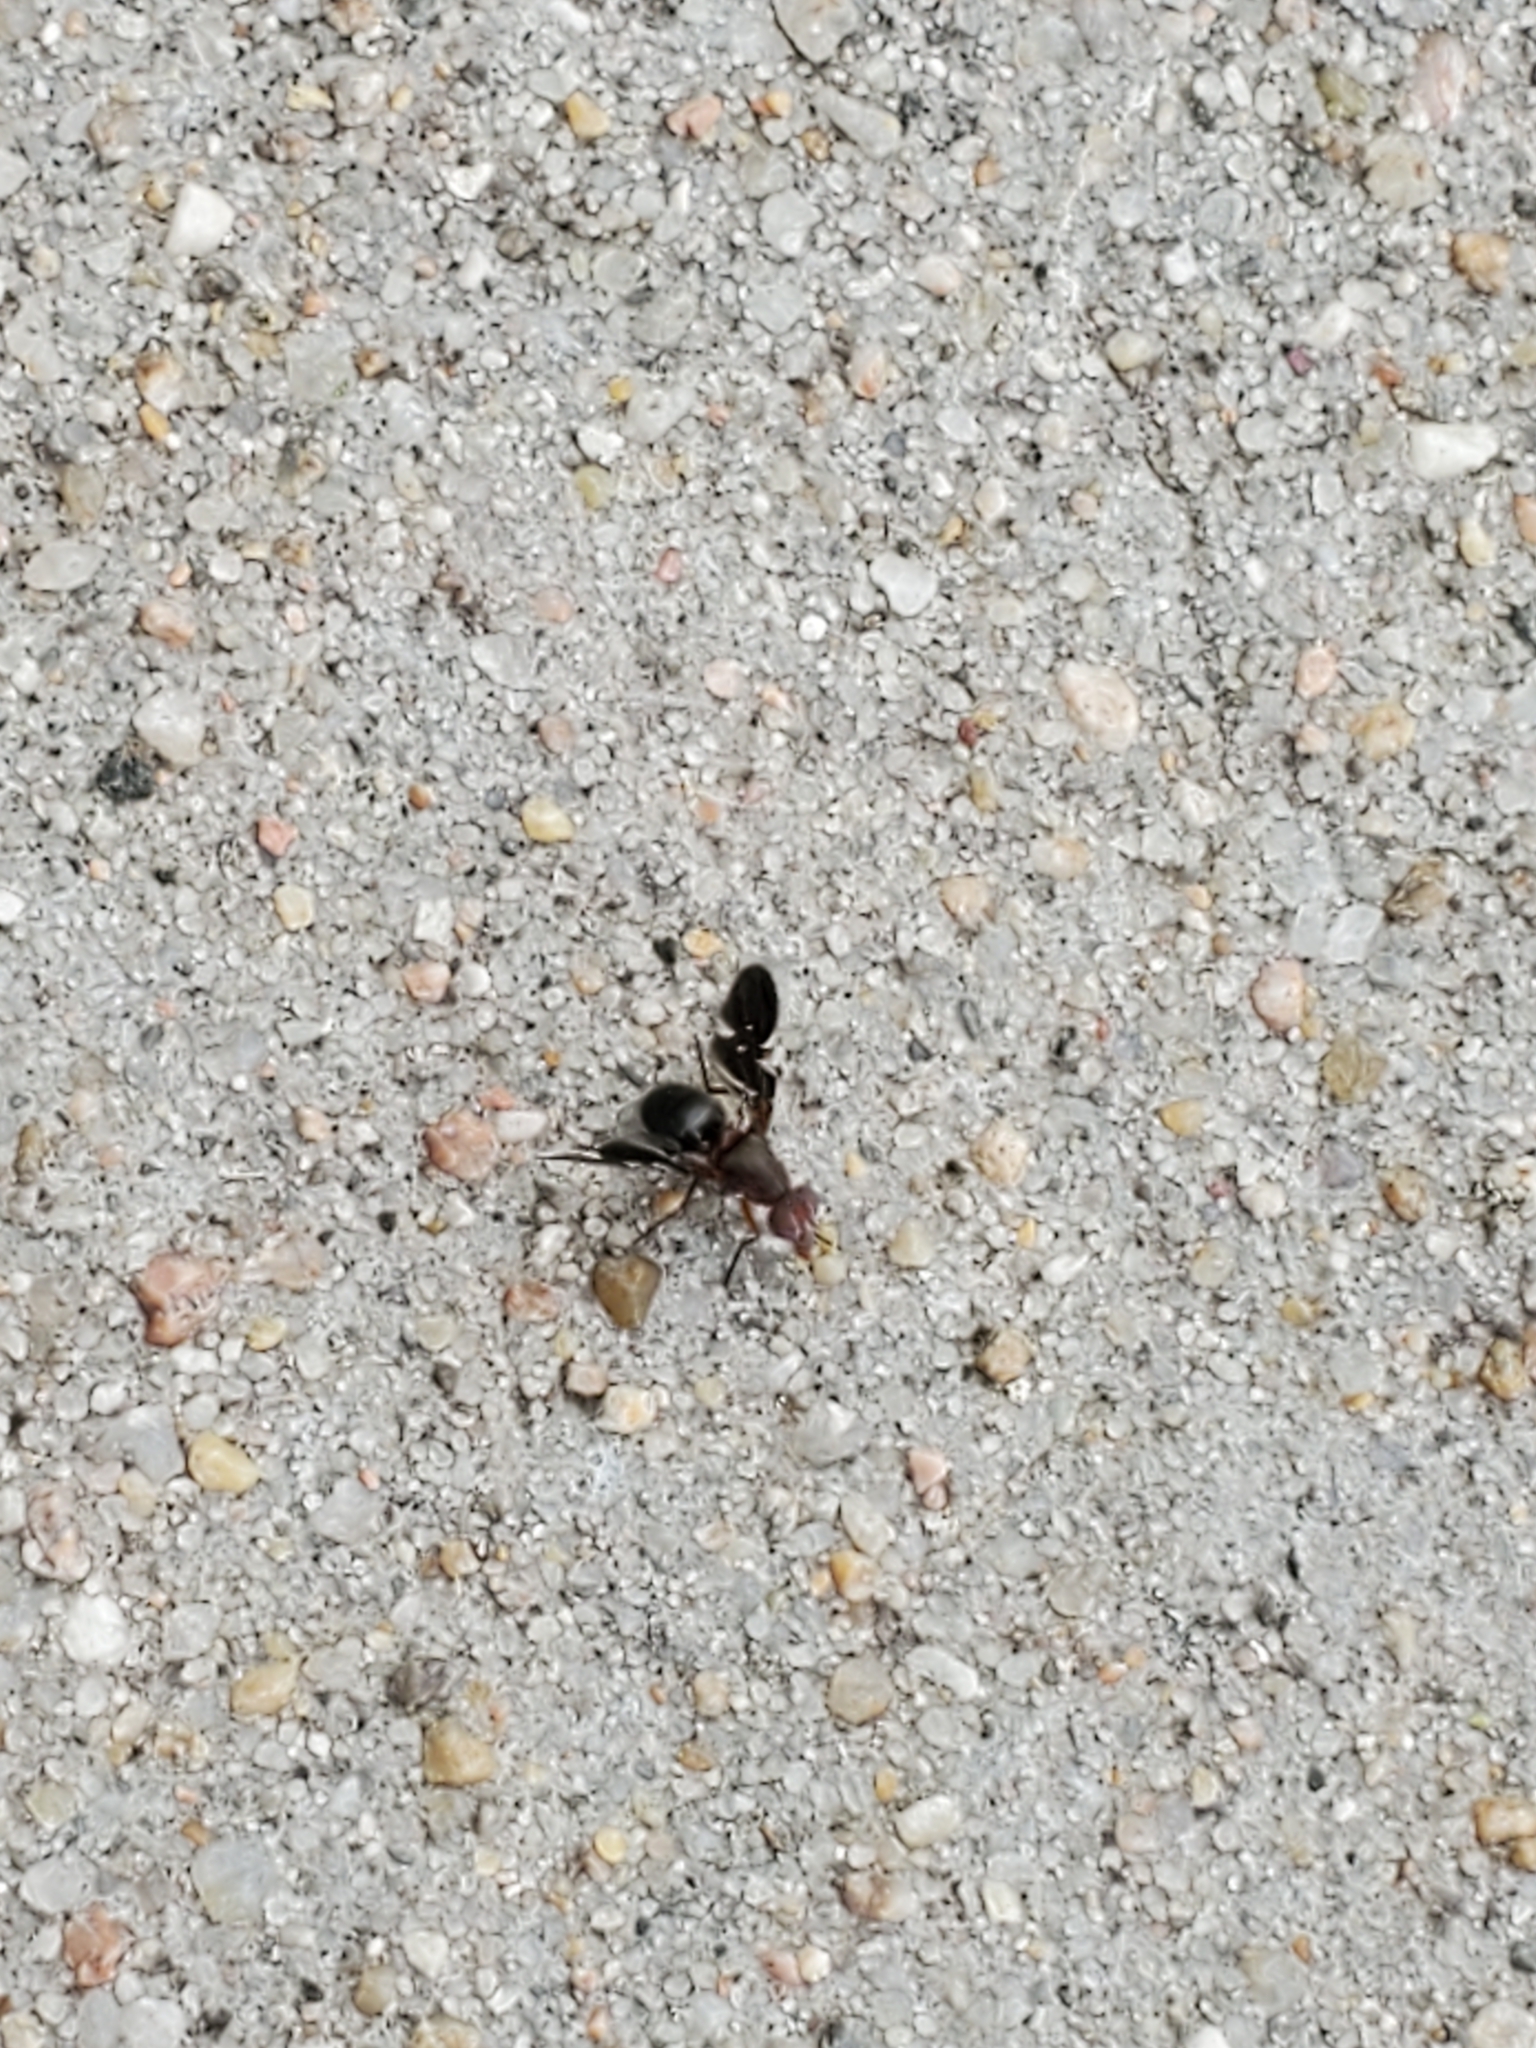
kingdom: Animalia
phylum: Arthropoda
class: Insecta
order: Diptera
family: Ulidiidae
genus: Delphinia
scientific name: Delphinia picta
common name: Common picture-winged fly
